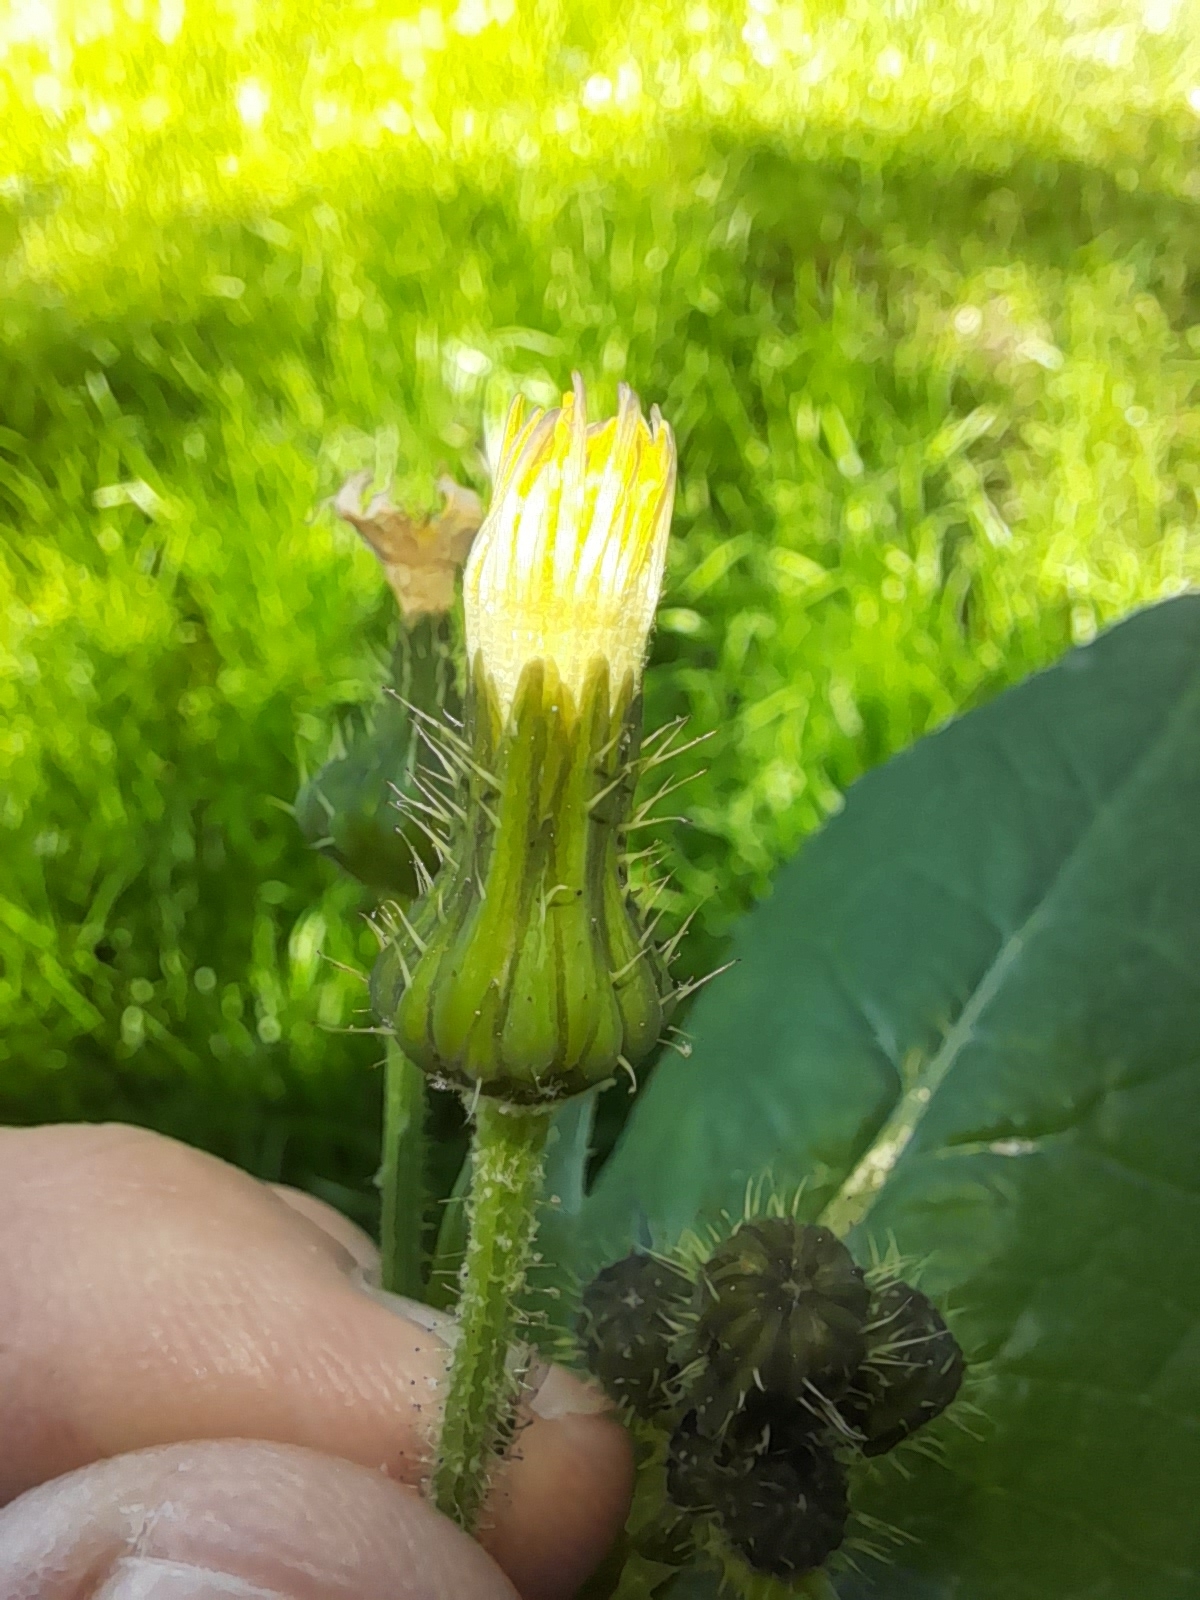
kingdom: Plantae
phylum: Tracheophyta
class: Magnoliopsida
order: Asterales
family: Asteraceae
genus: Sonchus
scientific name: Sonchus oleraceus
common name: Common sowthistle
